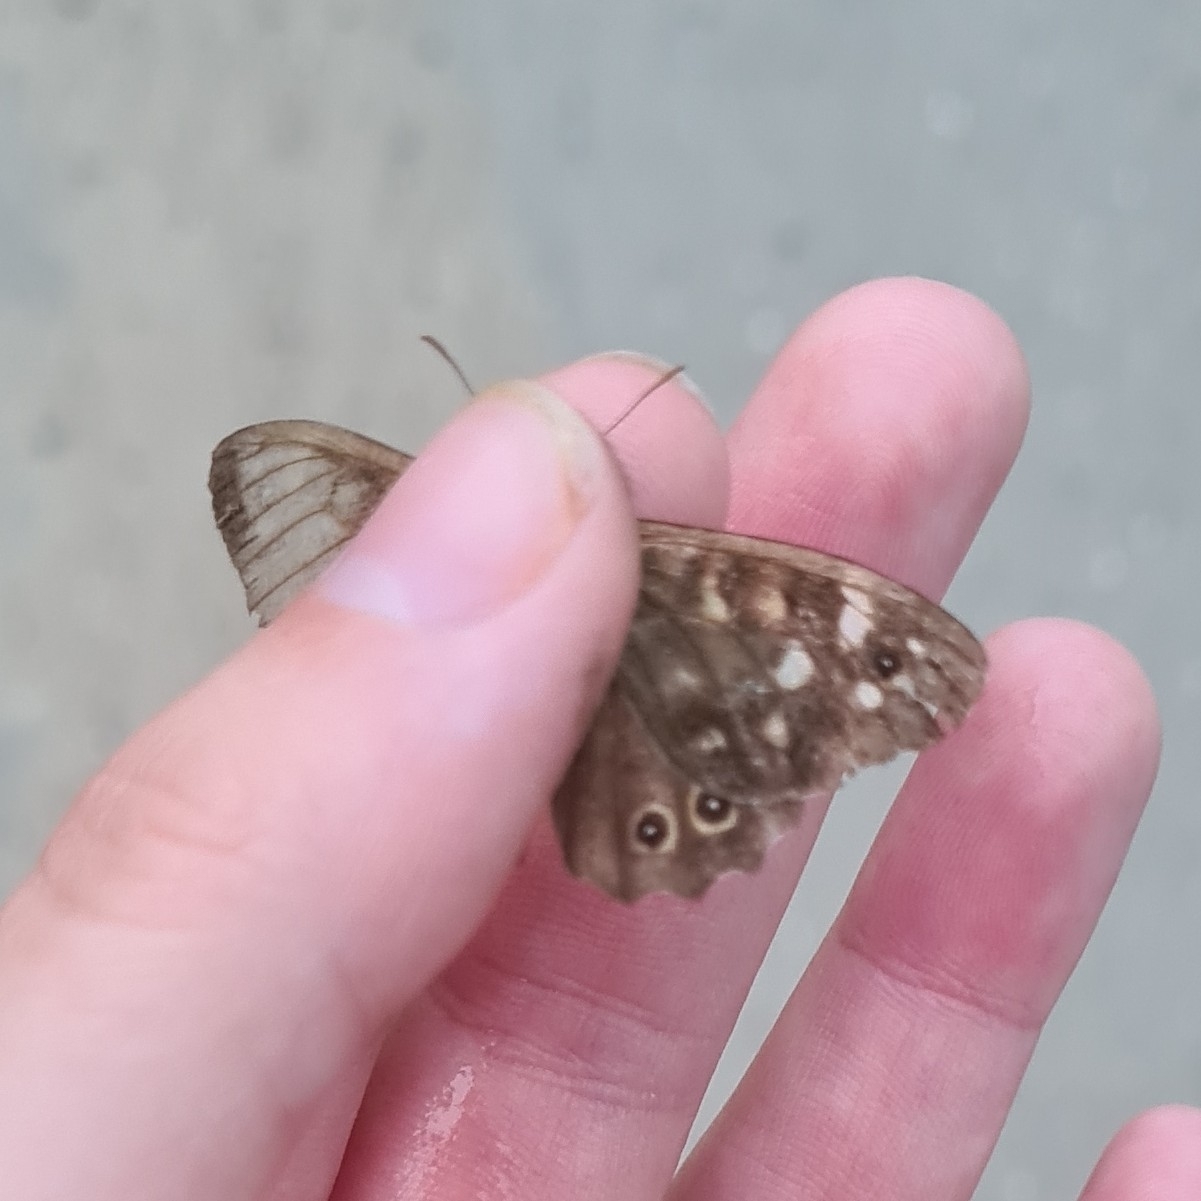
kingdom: Animalia
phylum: Arthropoda
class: Insecta
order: Lepidoptera
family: Nymphalidae
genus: Pararge
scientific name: Pararge aegeria
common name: Speckled wood
